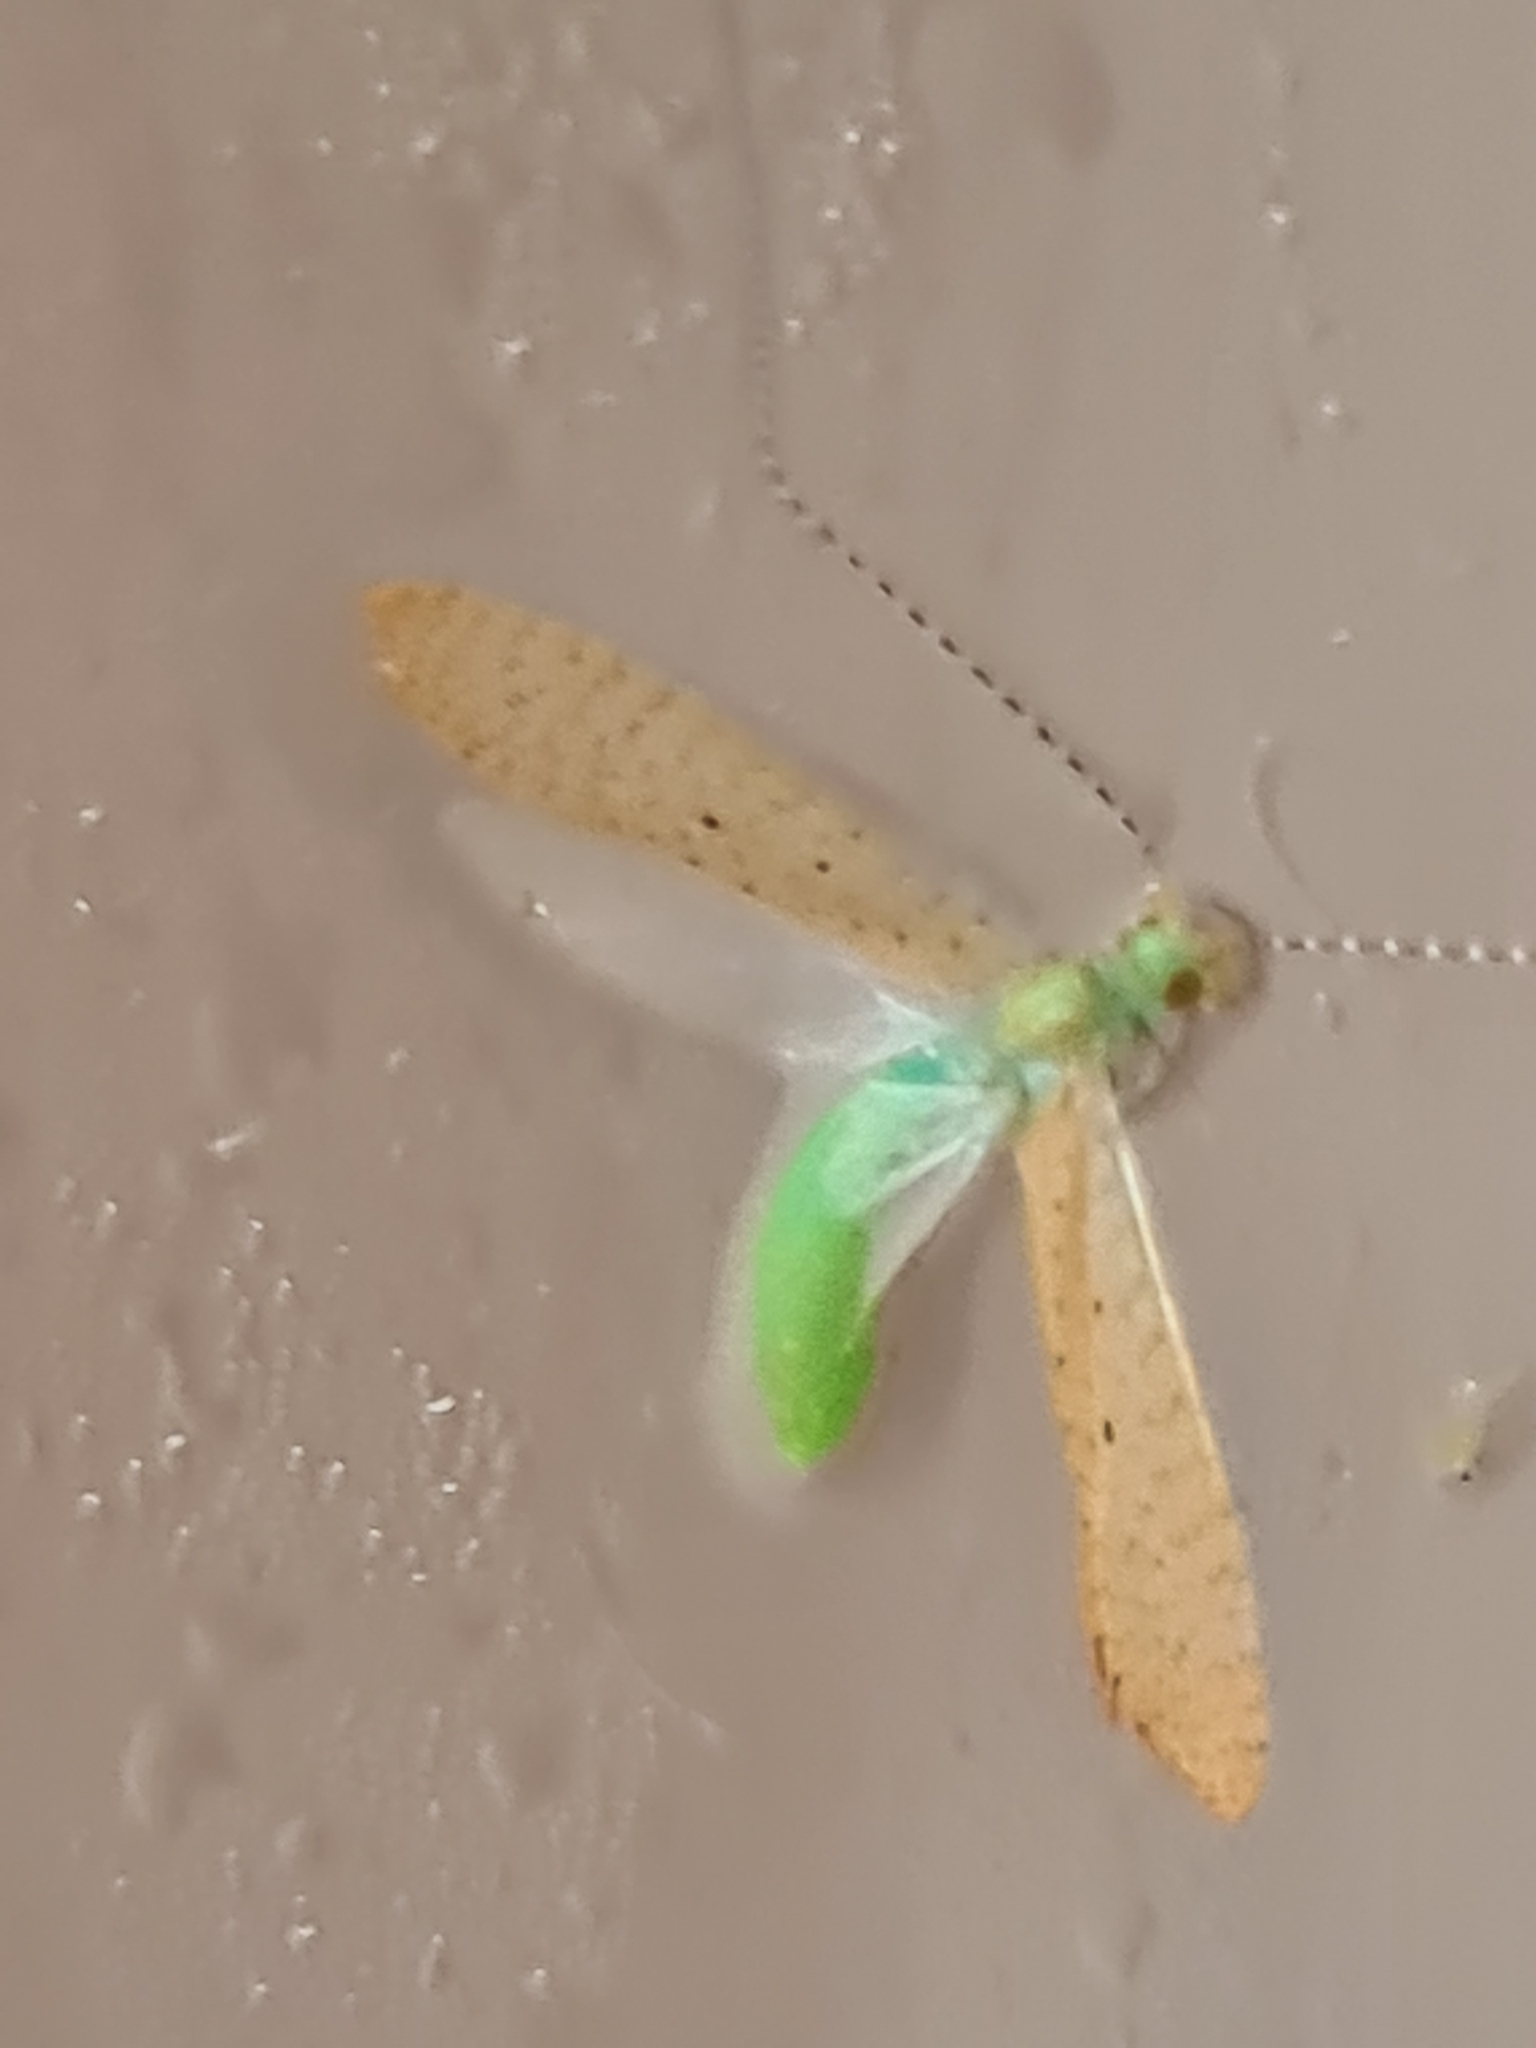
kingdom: Animalia
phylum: Arthropoda
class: Insecta
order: Trichoptera
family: Leptoceridae
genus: Nectopsyche
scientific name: Nectopsyche muhni
